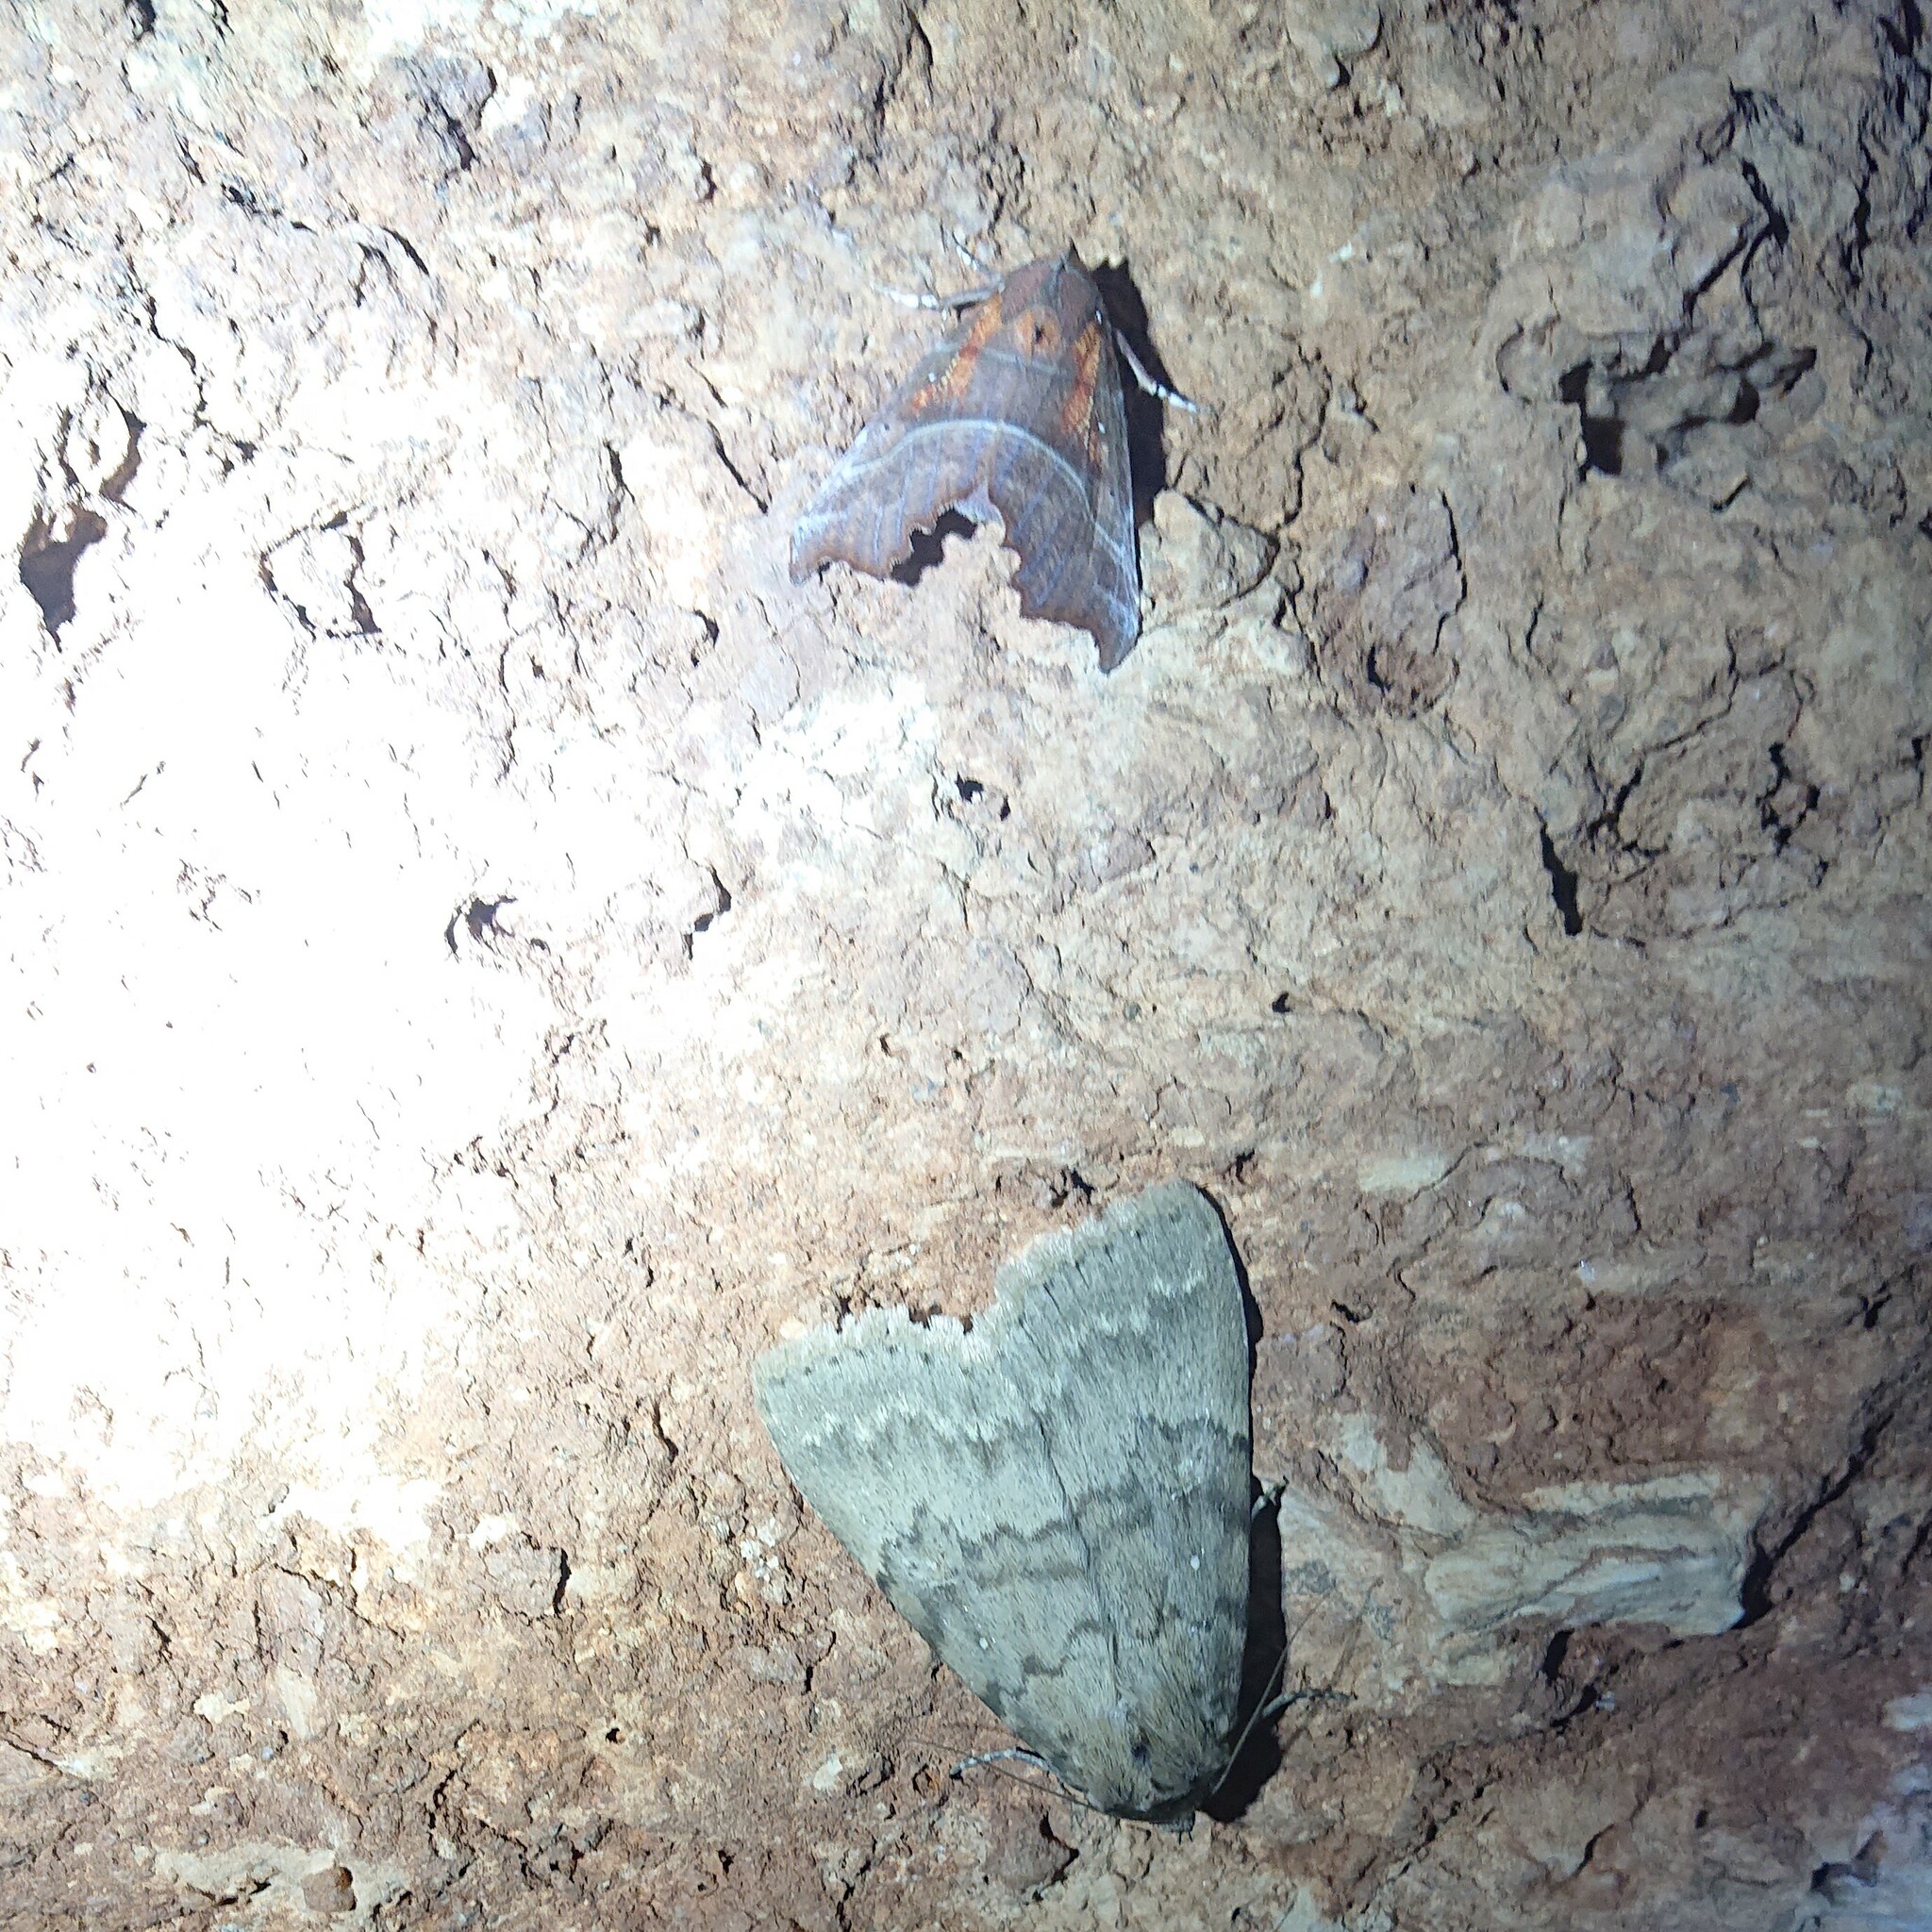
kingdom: Animalia
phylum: Arthropoda
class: Insecta
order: Lepidoptera
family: Erebidae
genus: Scoliopteryx
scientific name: Scoliopteryx libatrix
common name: Herald
